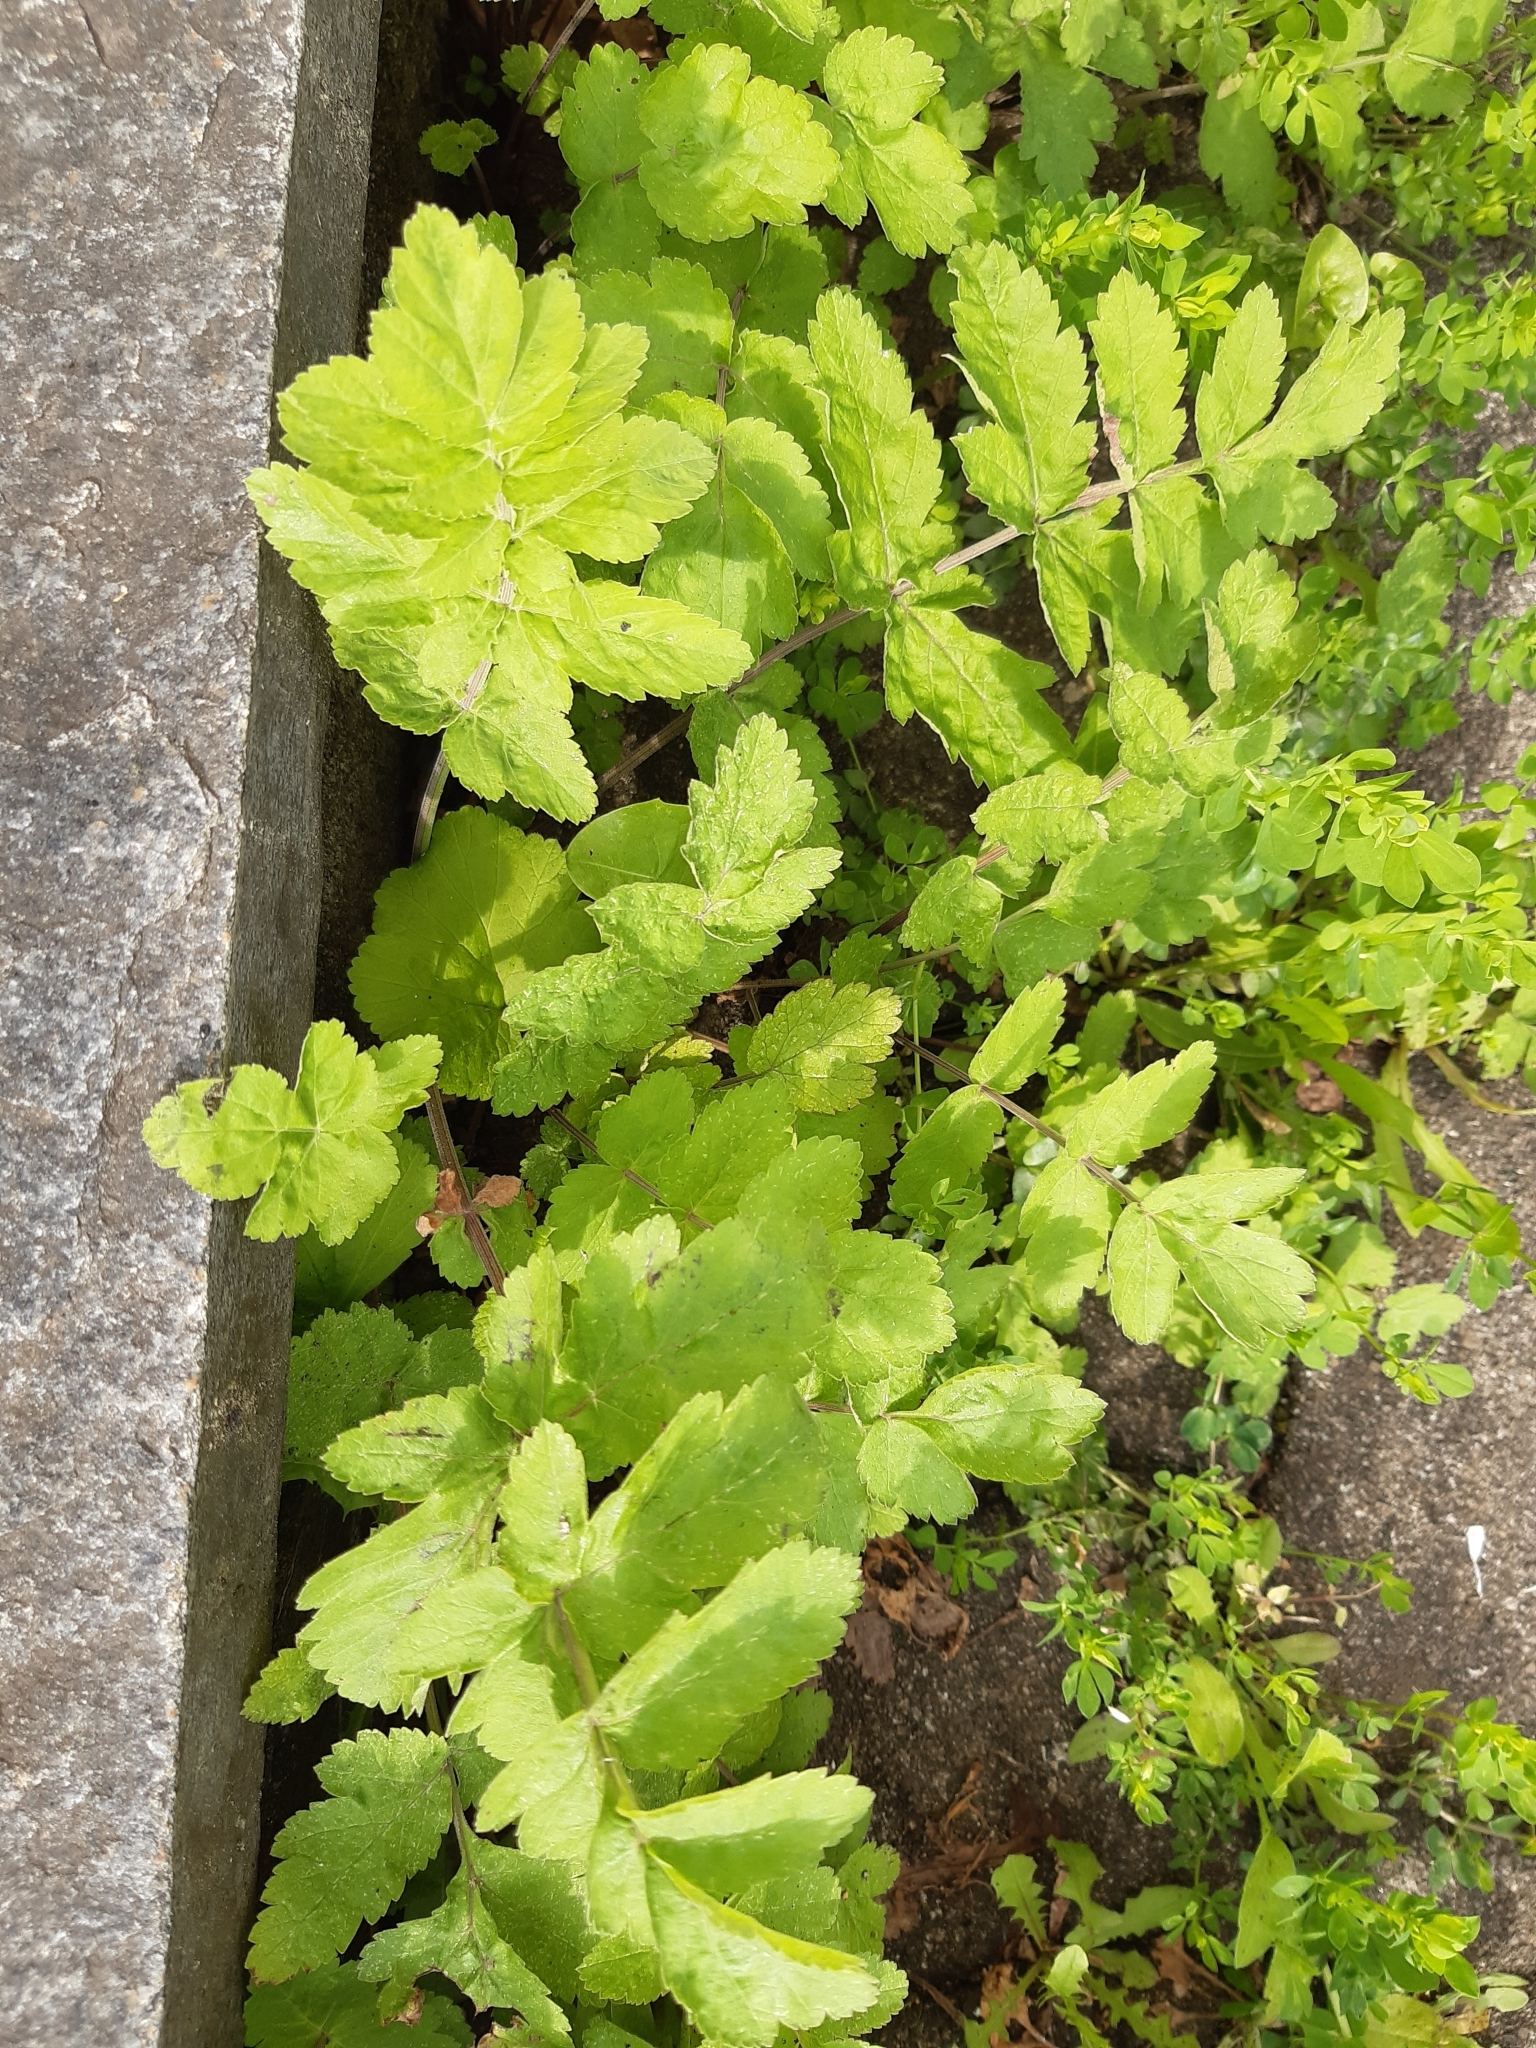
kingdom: Plantae
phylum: Tracheophyta
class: Magnoliopsida
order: Apiales
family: Apiaceae
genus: Pastinaca
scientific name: Pastinaca sativa
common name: Wild parsnip
